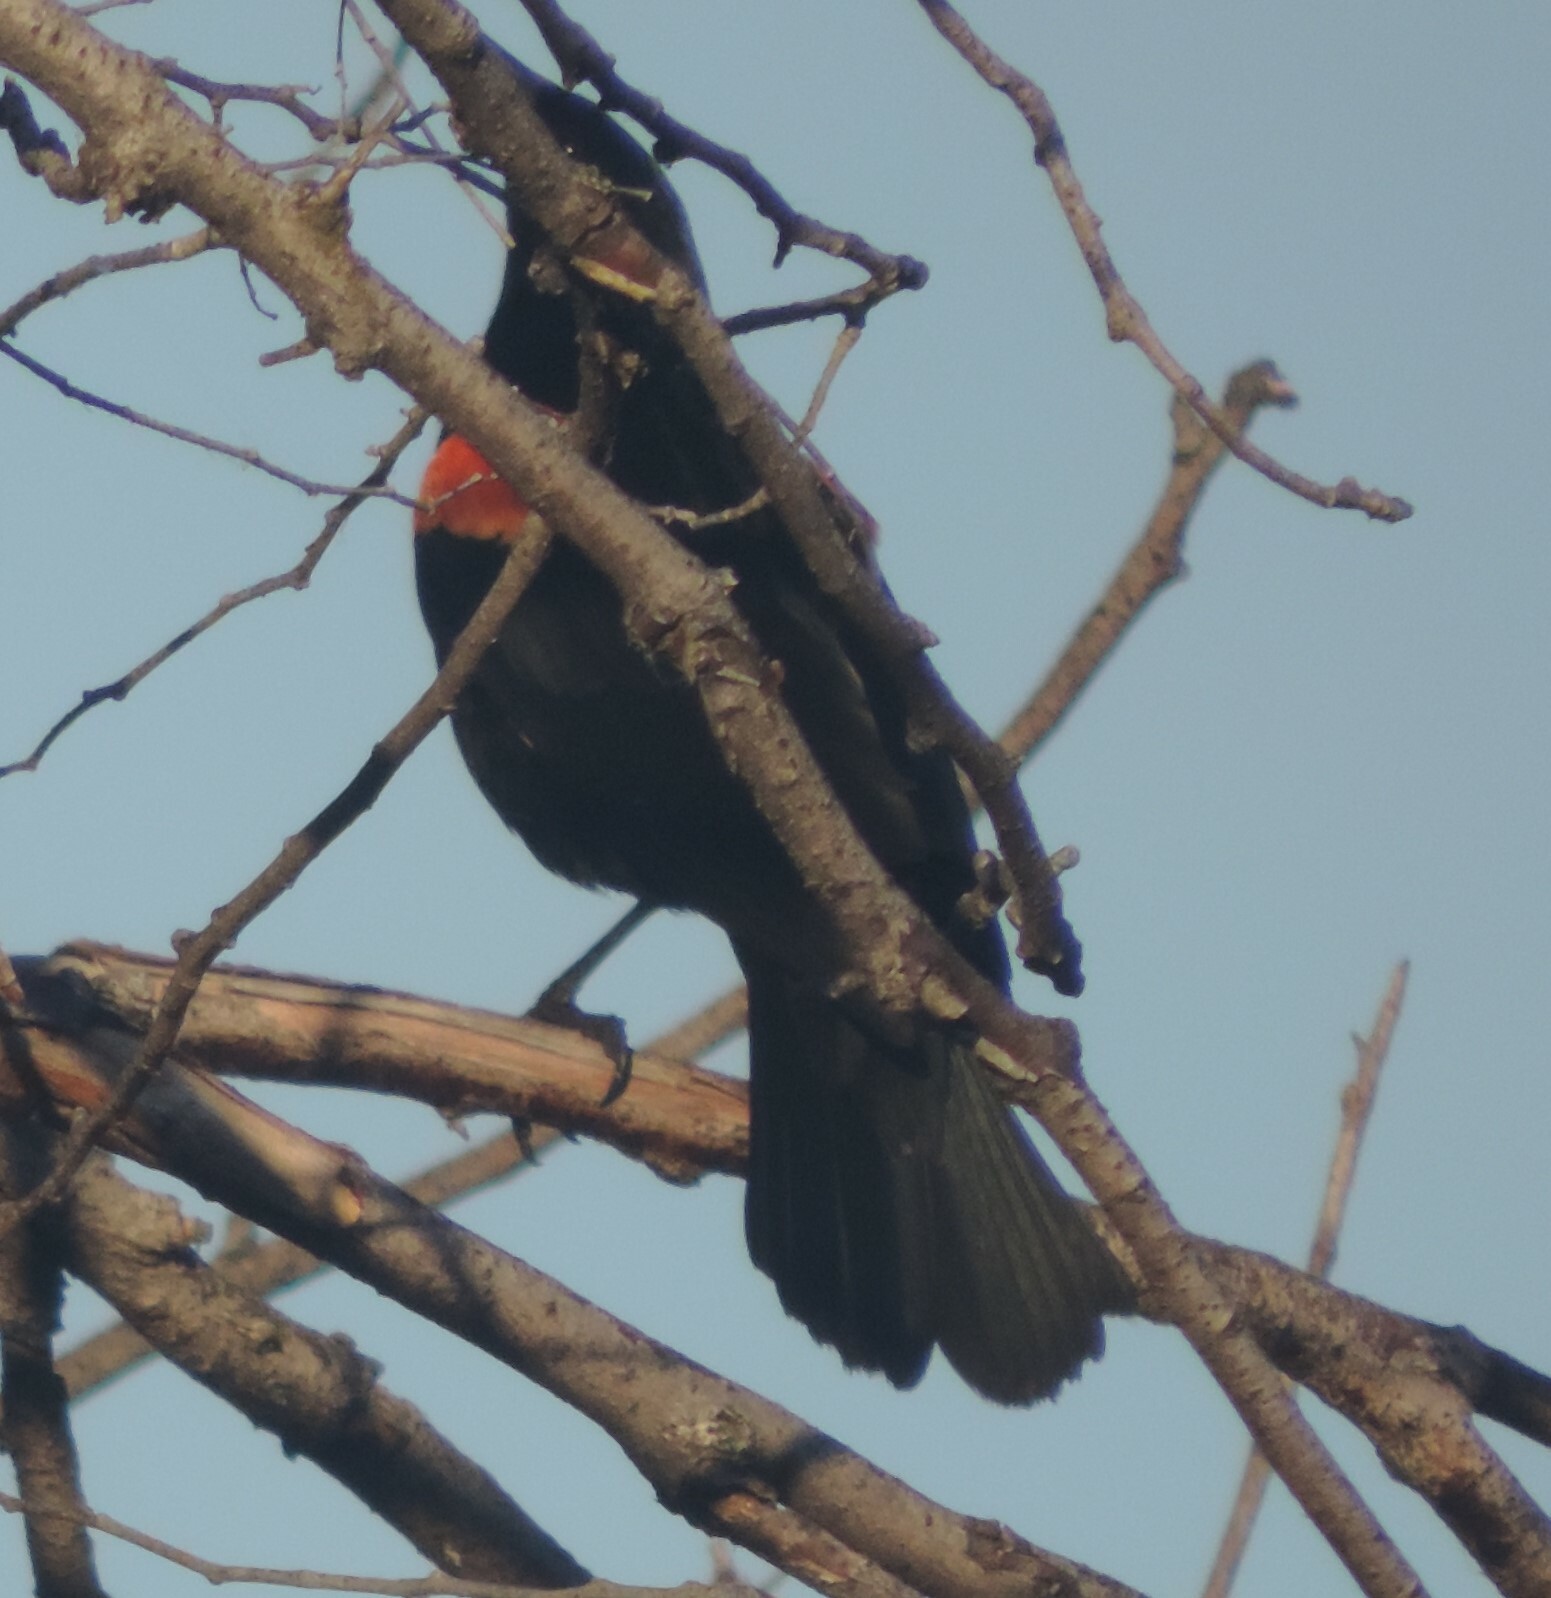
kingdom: Animalia
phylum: Chordata
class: Aves
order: Passeriformes
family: Icteridae
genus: Agelaius
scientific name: Agelaius phoeniceus
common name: Red-winged blackbird
